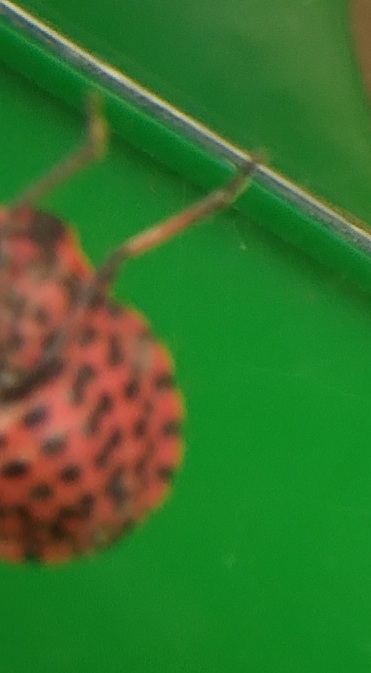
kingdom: Animalia
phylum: Arthropoda
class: Insecta
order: Hemiptera
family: Pentatomidae
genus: Graphosoma
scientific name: Graphosoma italicum
